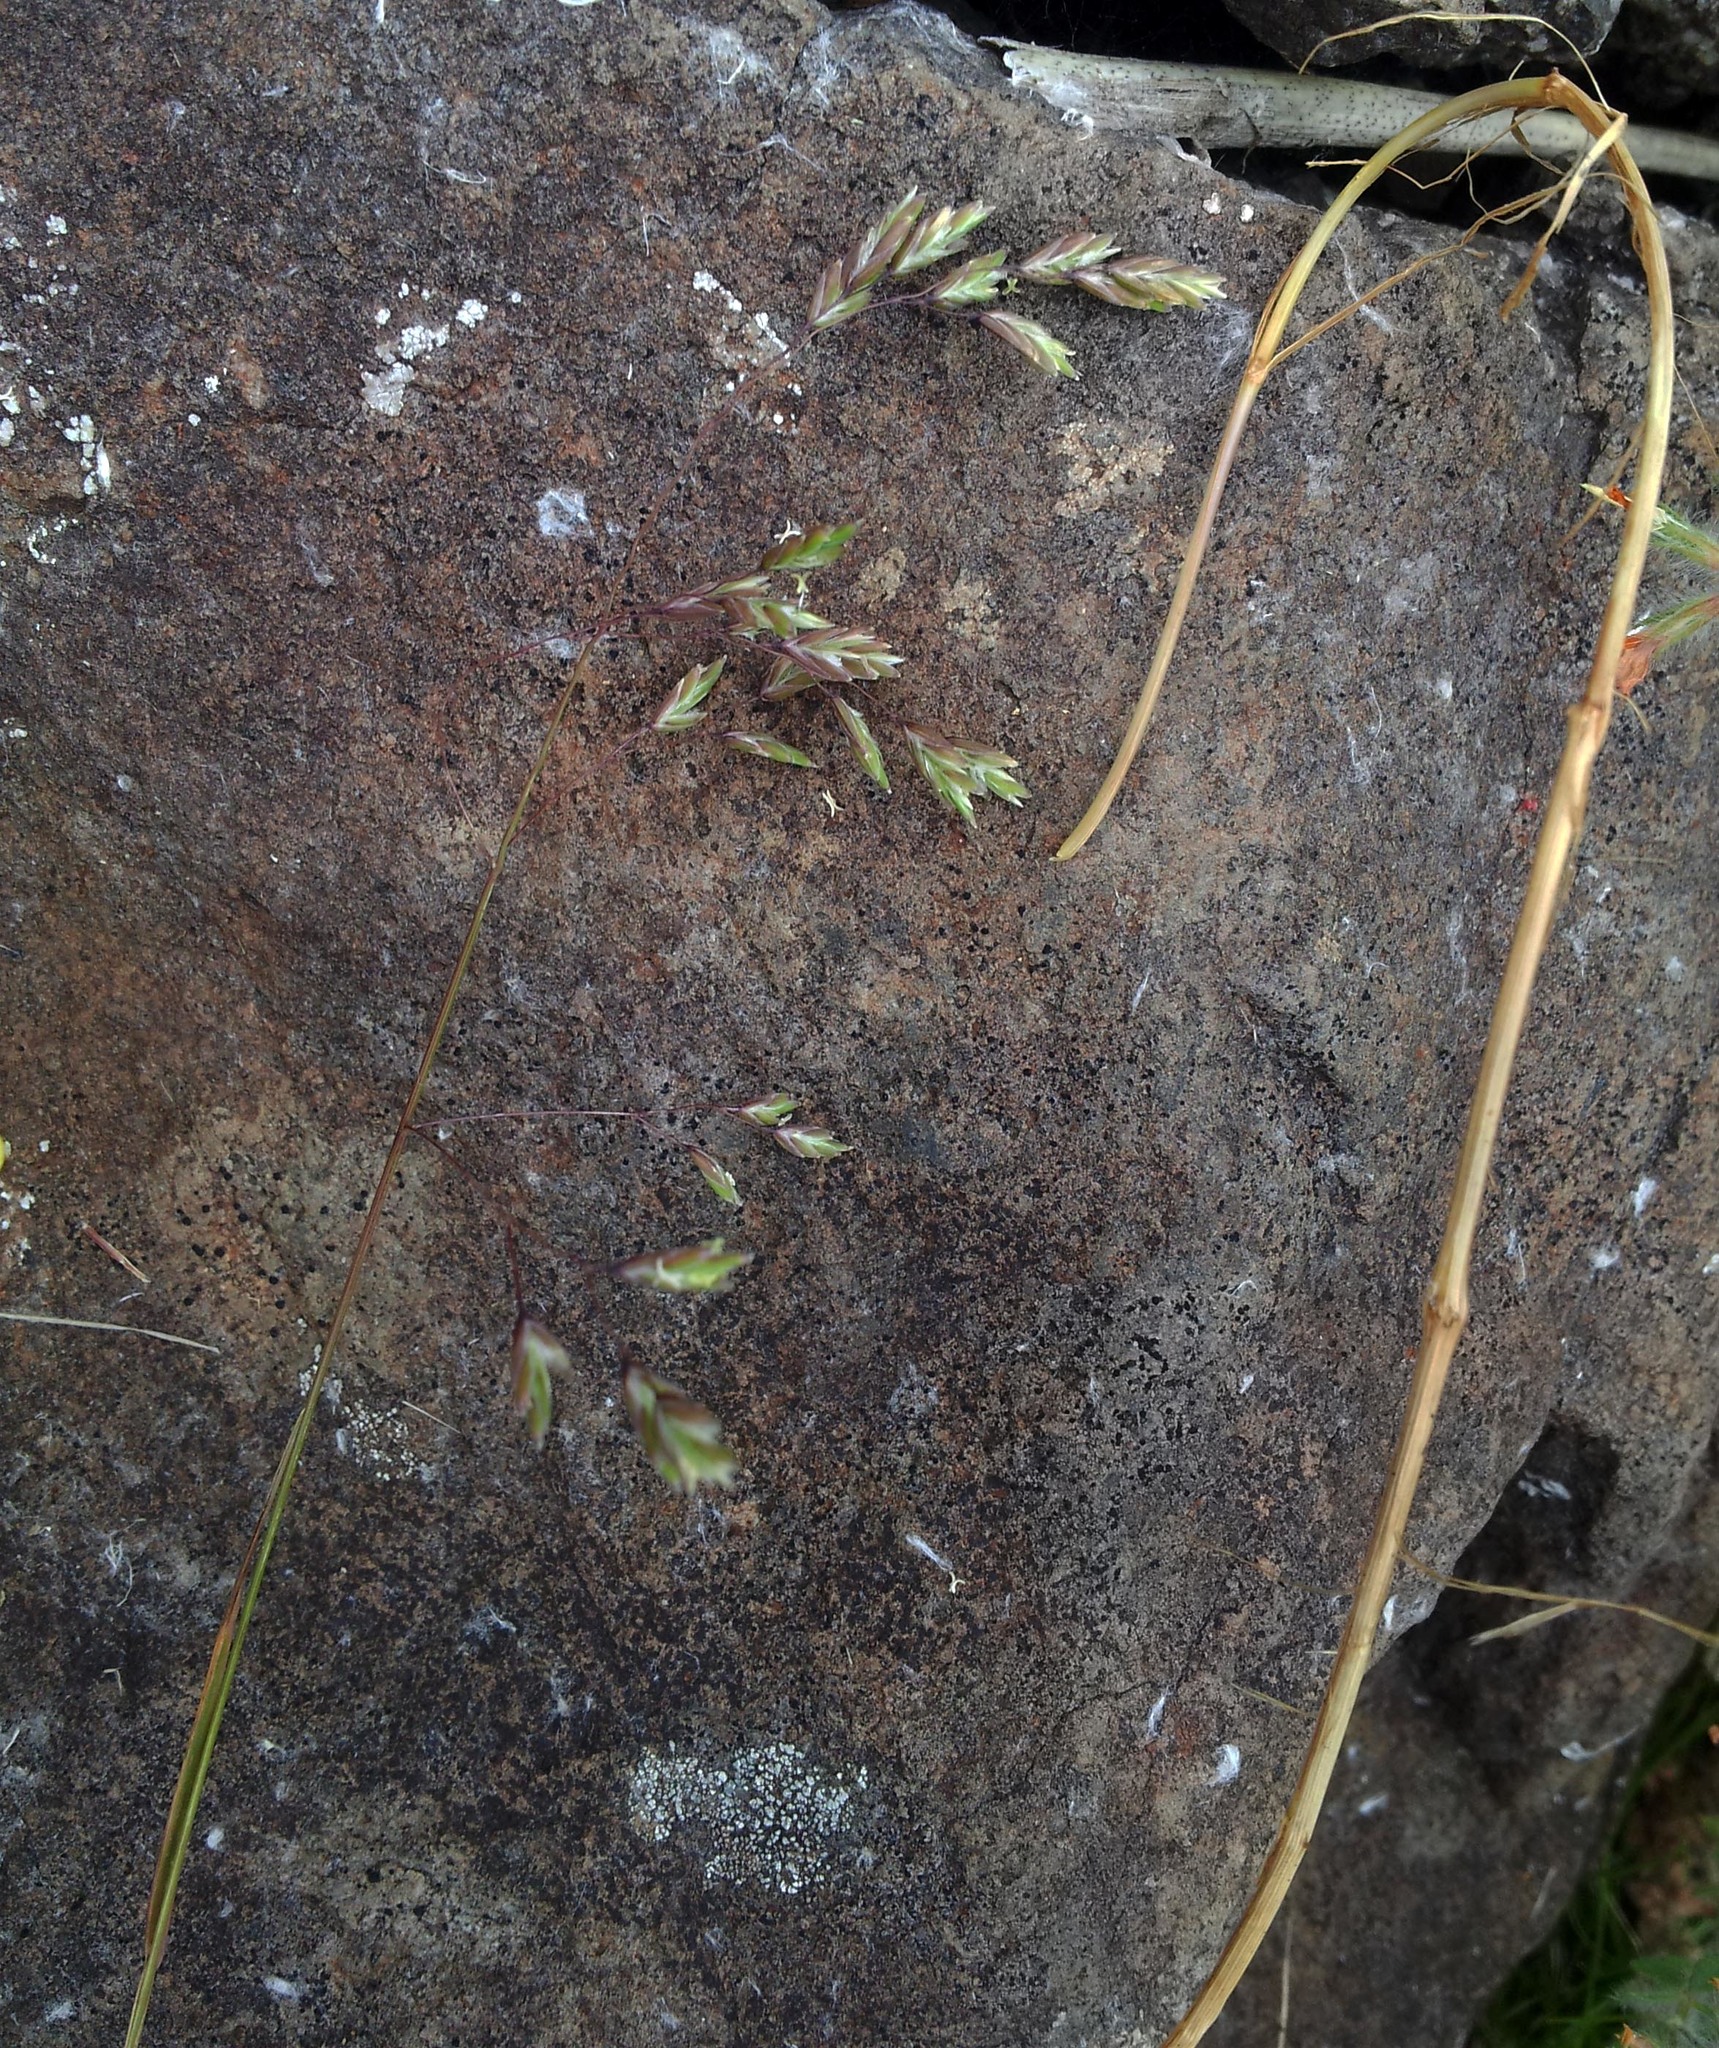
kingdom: Plantae
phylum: Tracheophyta
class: Liliopsida
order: Poales
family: Poaceae
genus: Poa
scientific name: Poa pusilla
